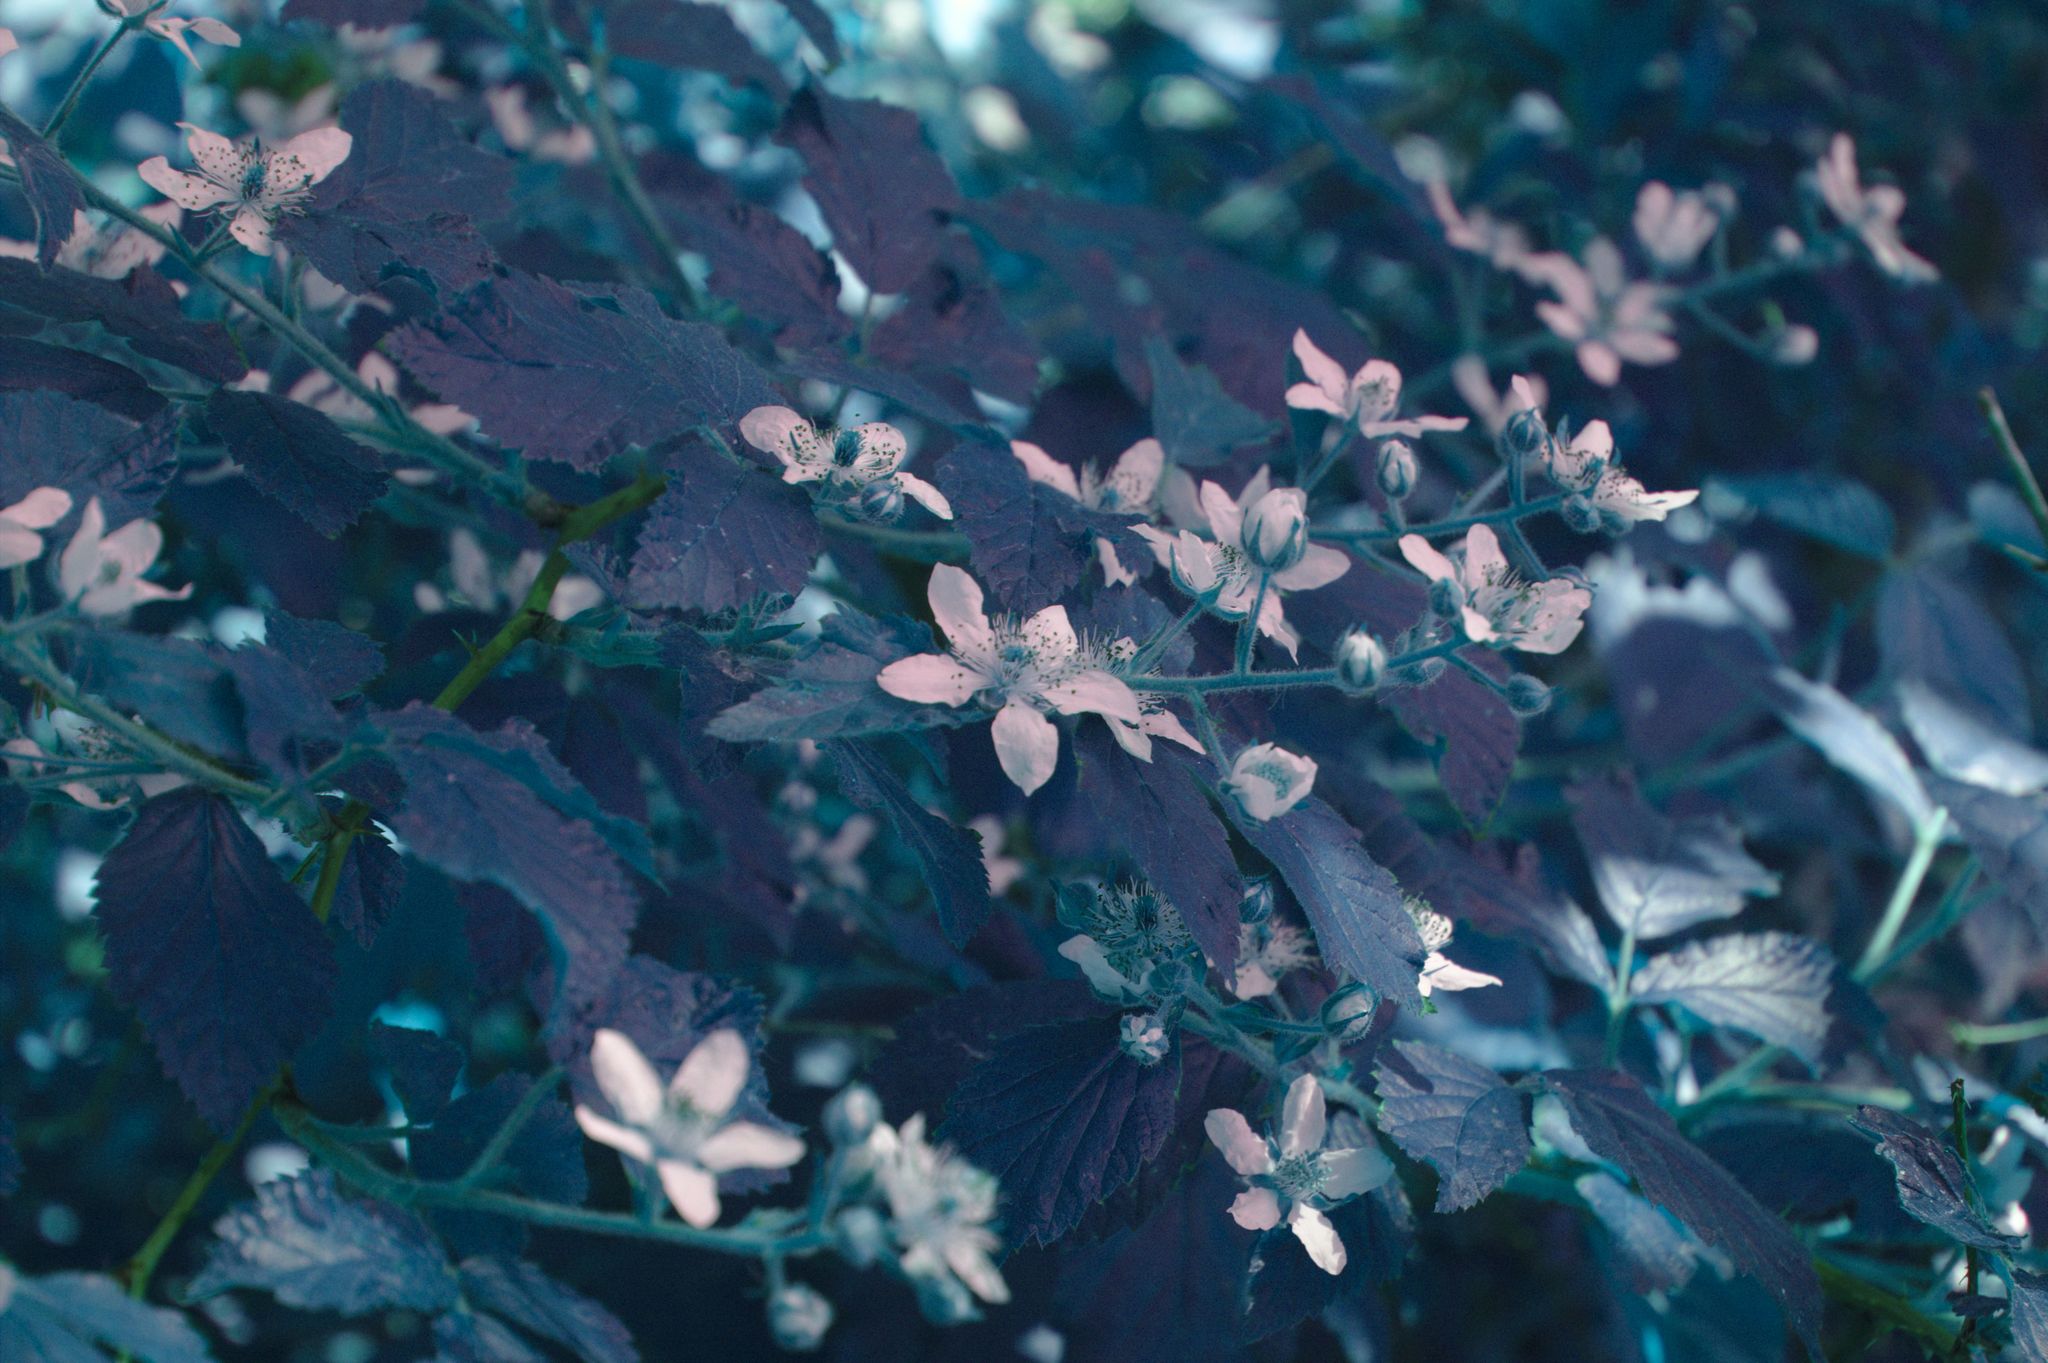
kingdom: Plantae
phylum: Tracheophyta
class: Magnoliopsida
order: Rosales
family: Rosaceae
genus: Rubus
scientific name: Rubus allegheniensis
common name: Allegheny blackberry
